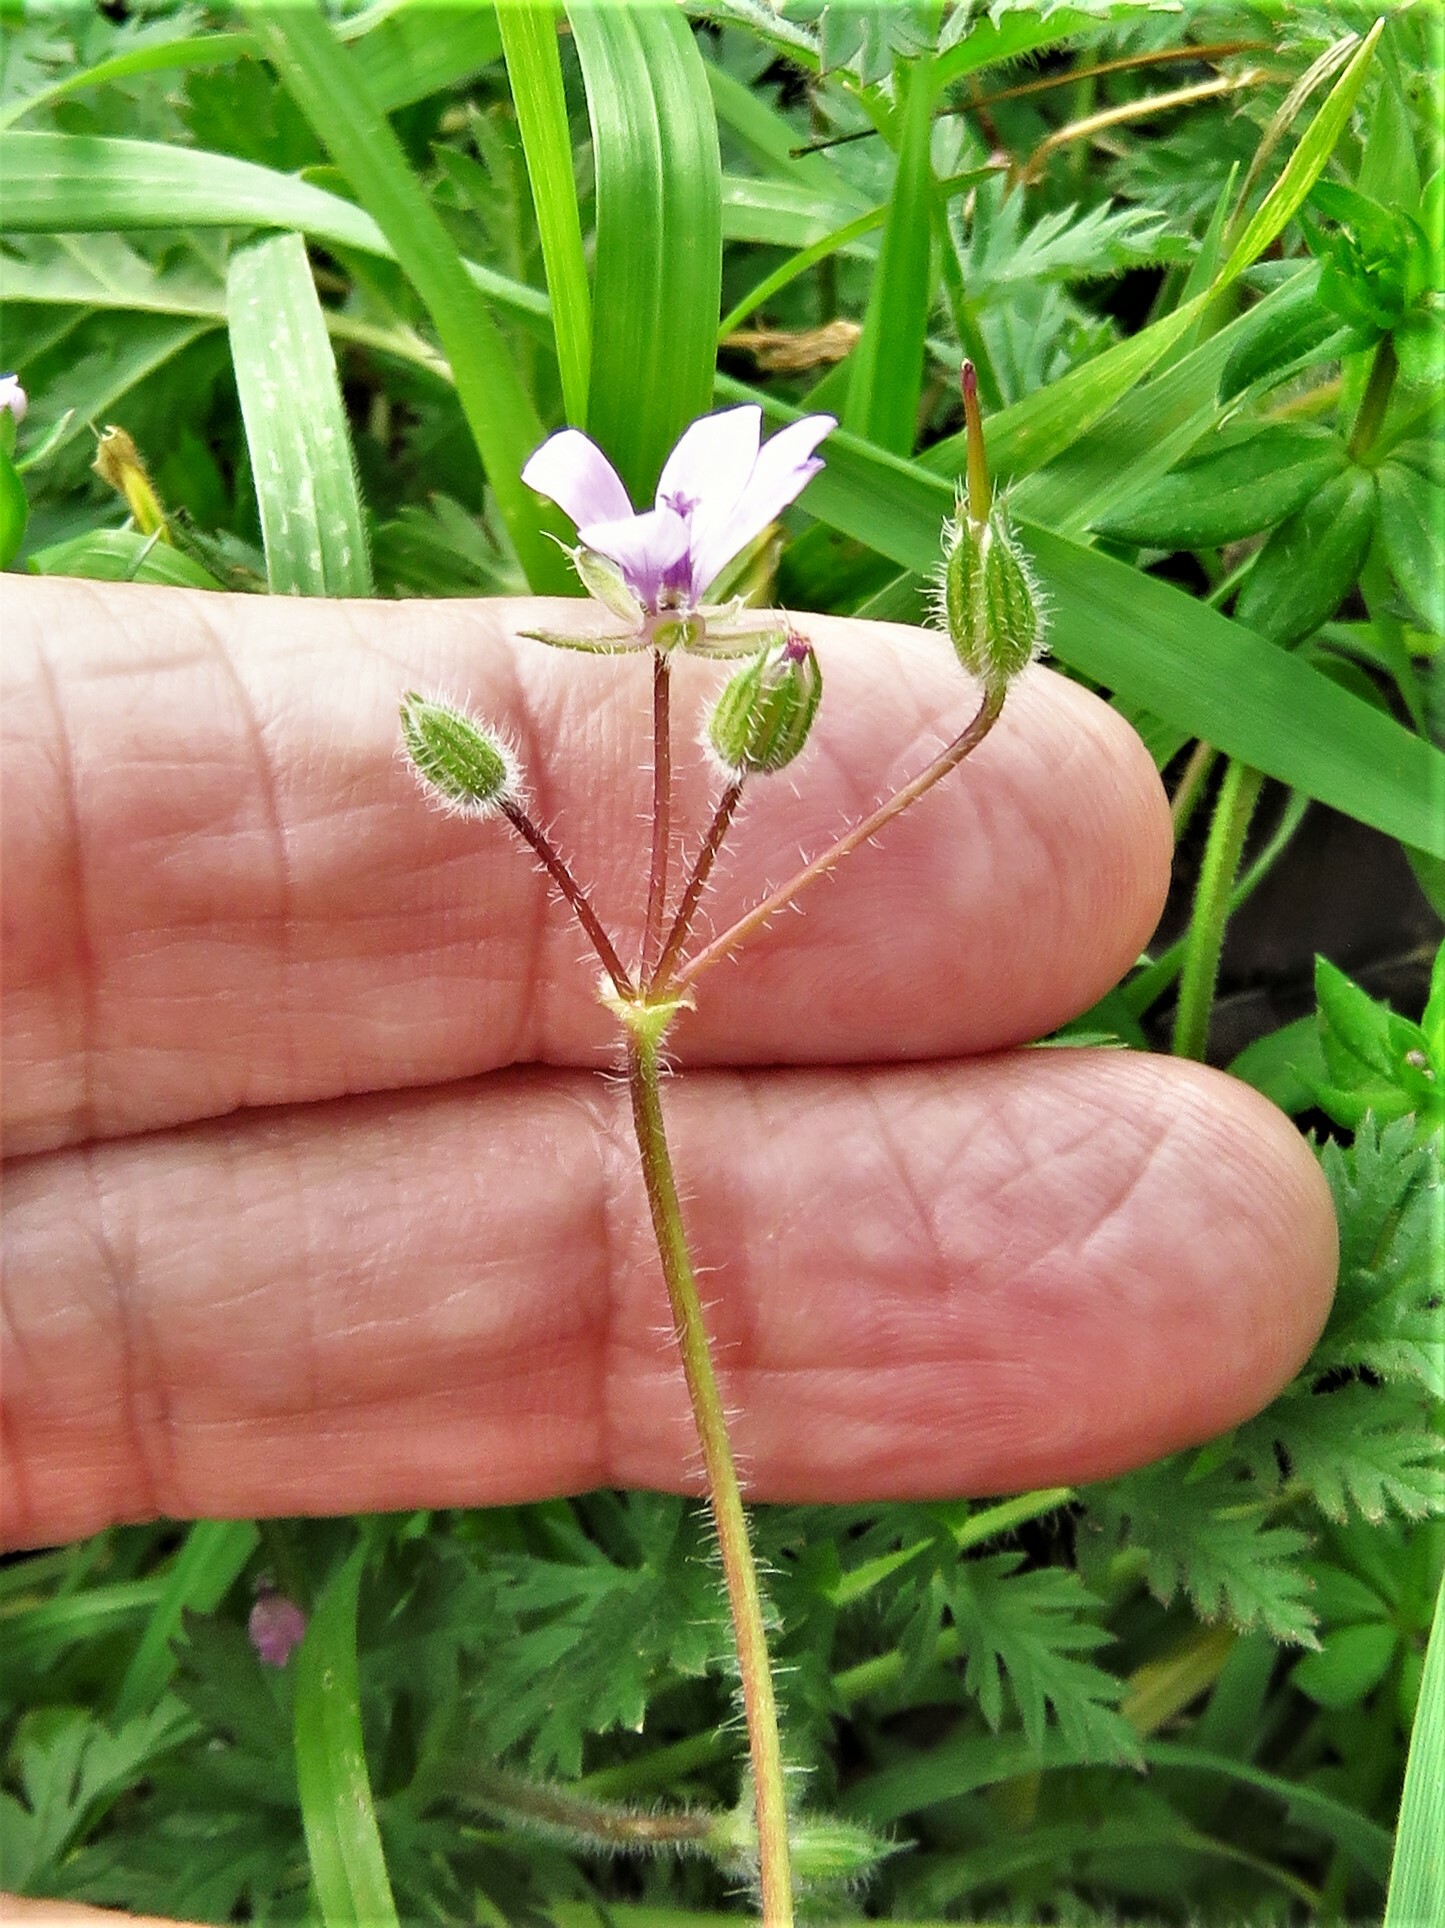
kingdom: Plantae
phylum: Tracheophyta
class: Magnoliopsida
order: Geraniales
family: Geraniaceae
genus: Erodium
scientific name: Erodium cicutarium
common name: Common stork's-bill
